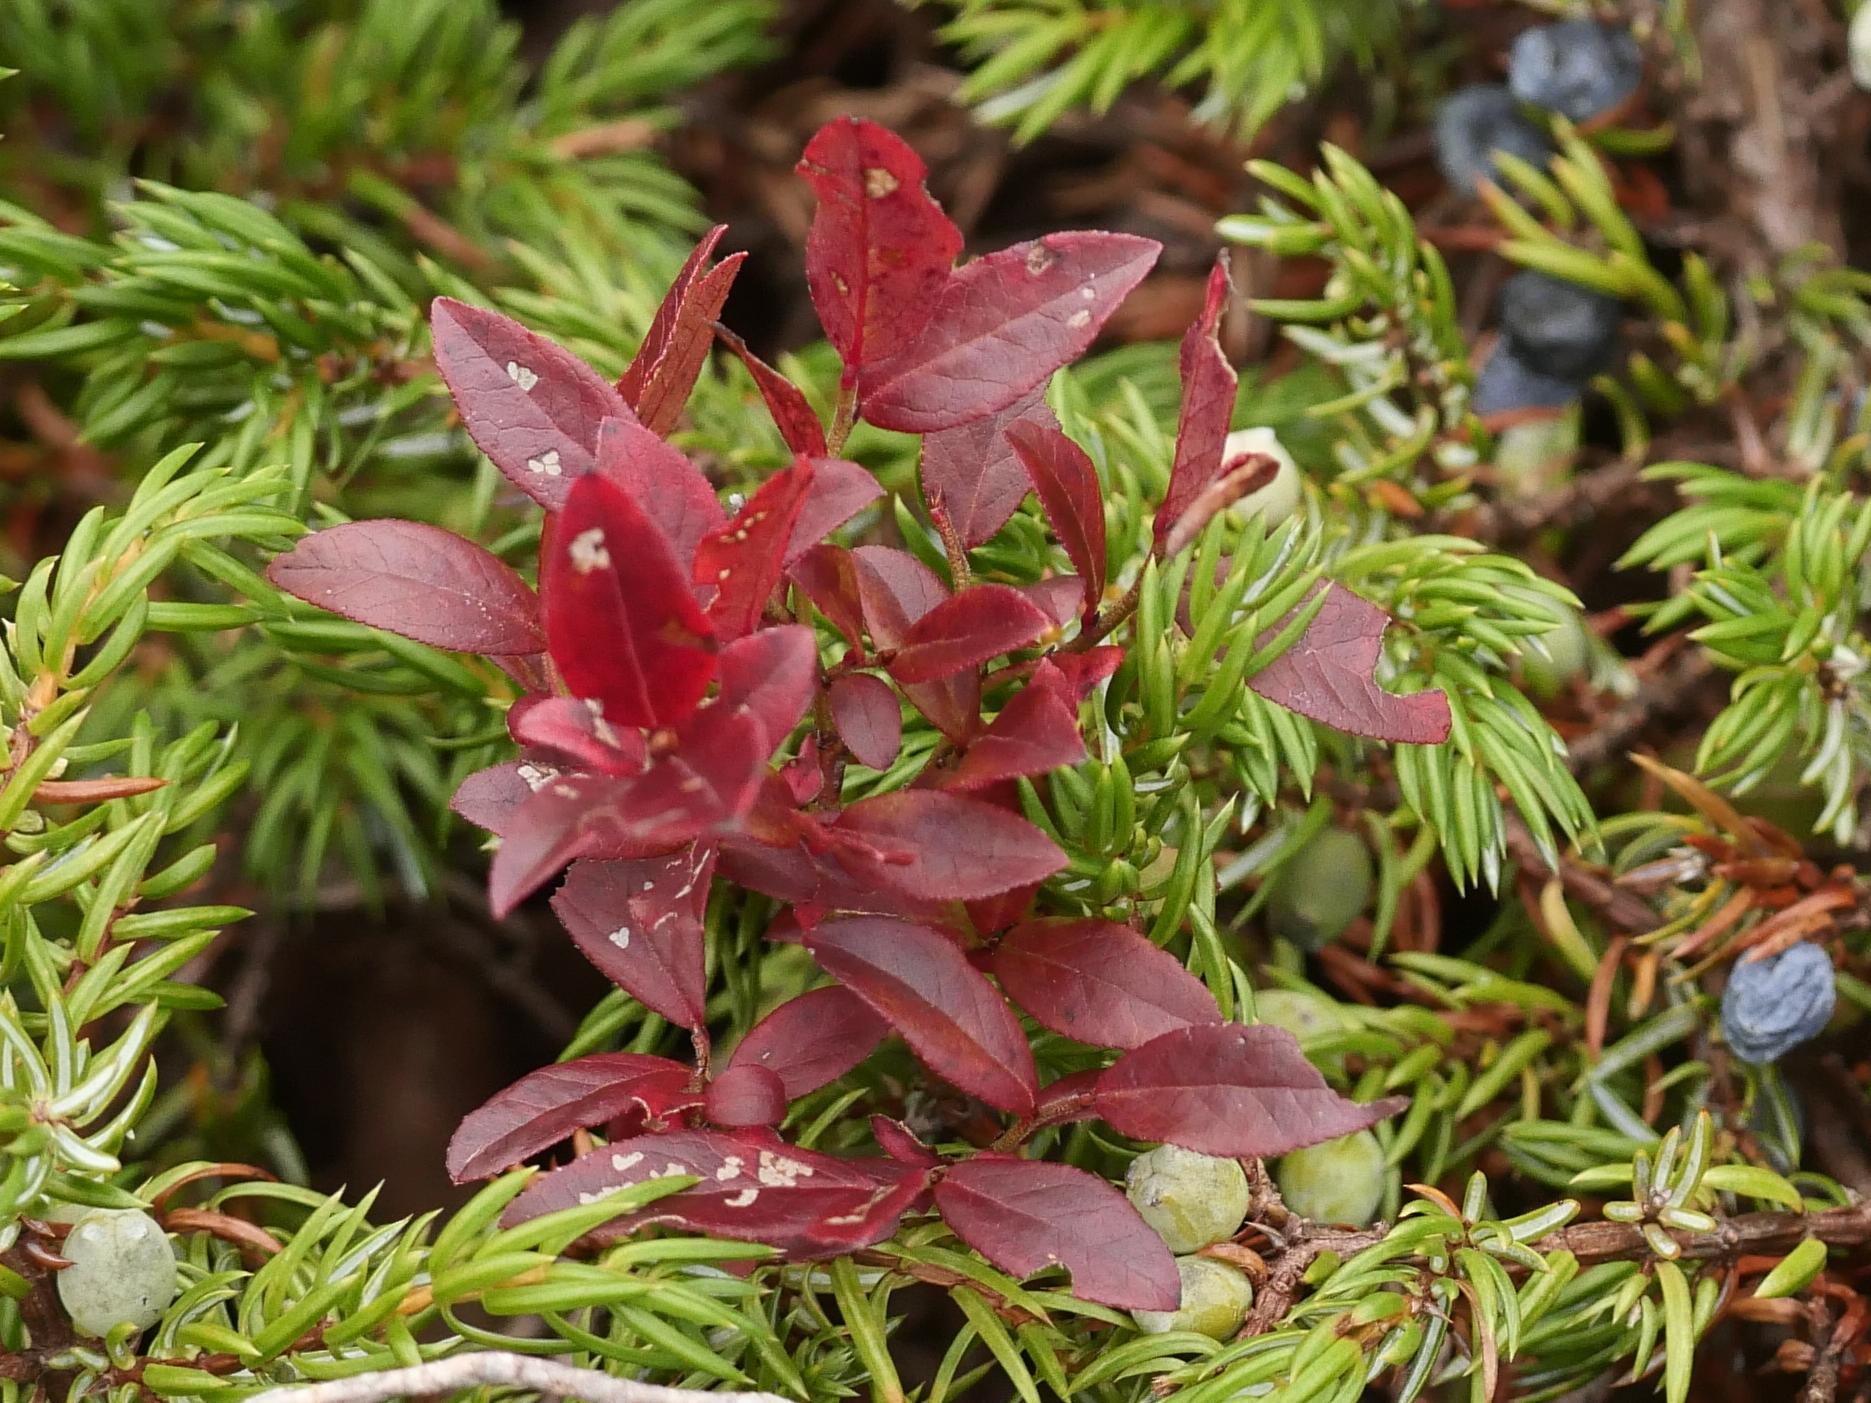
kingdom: Plantae
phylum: Tracheophyta
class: Magnoliopsida
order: Ericales
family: Ericaceae
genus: Vaccinium
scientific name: Vaccinium angustifolium
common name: Early lowbush blueberry
